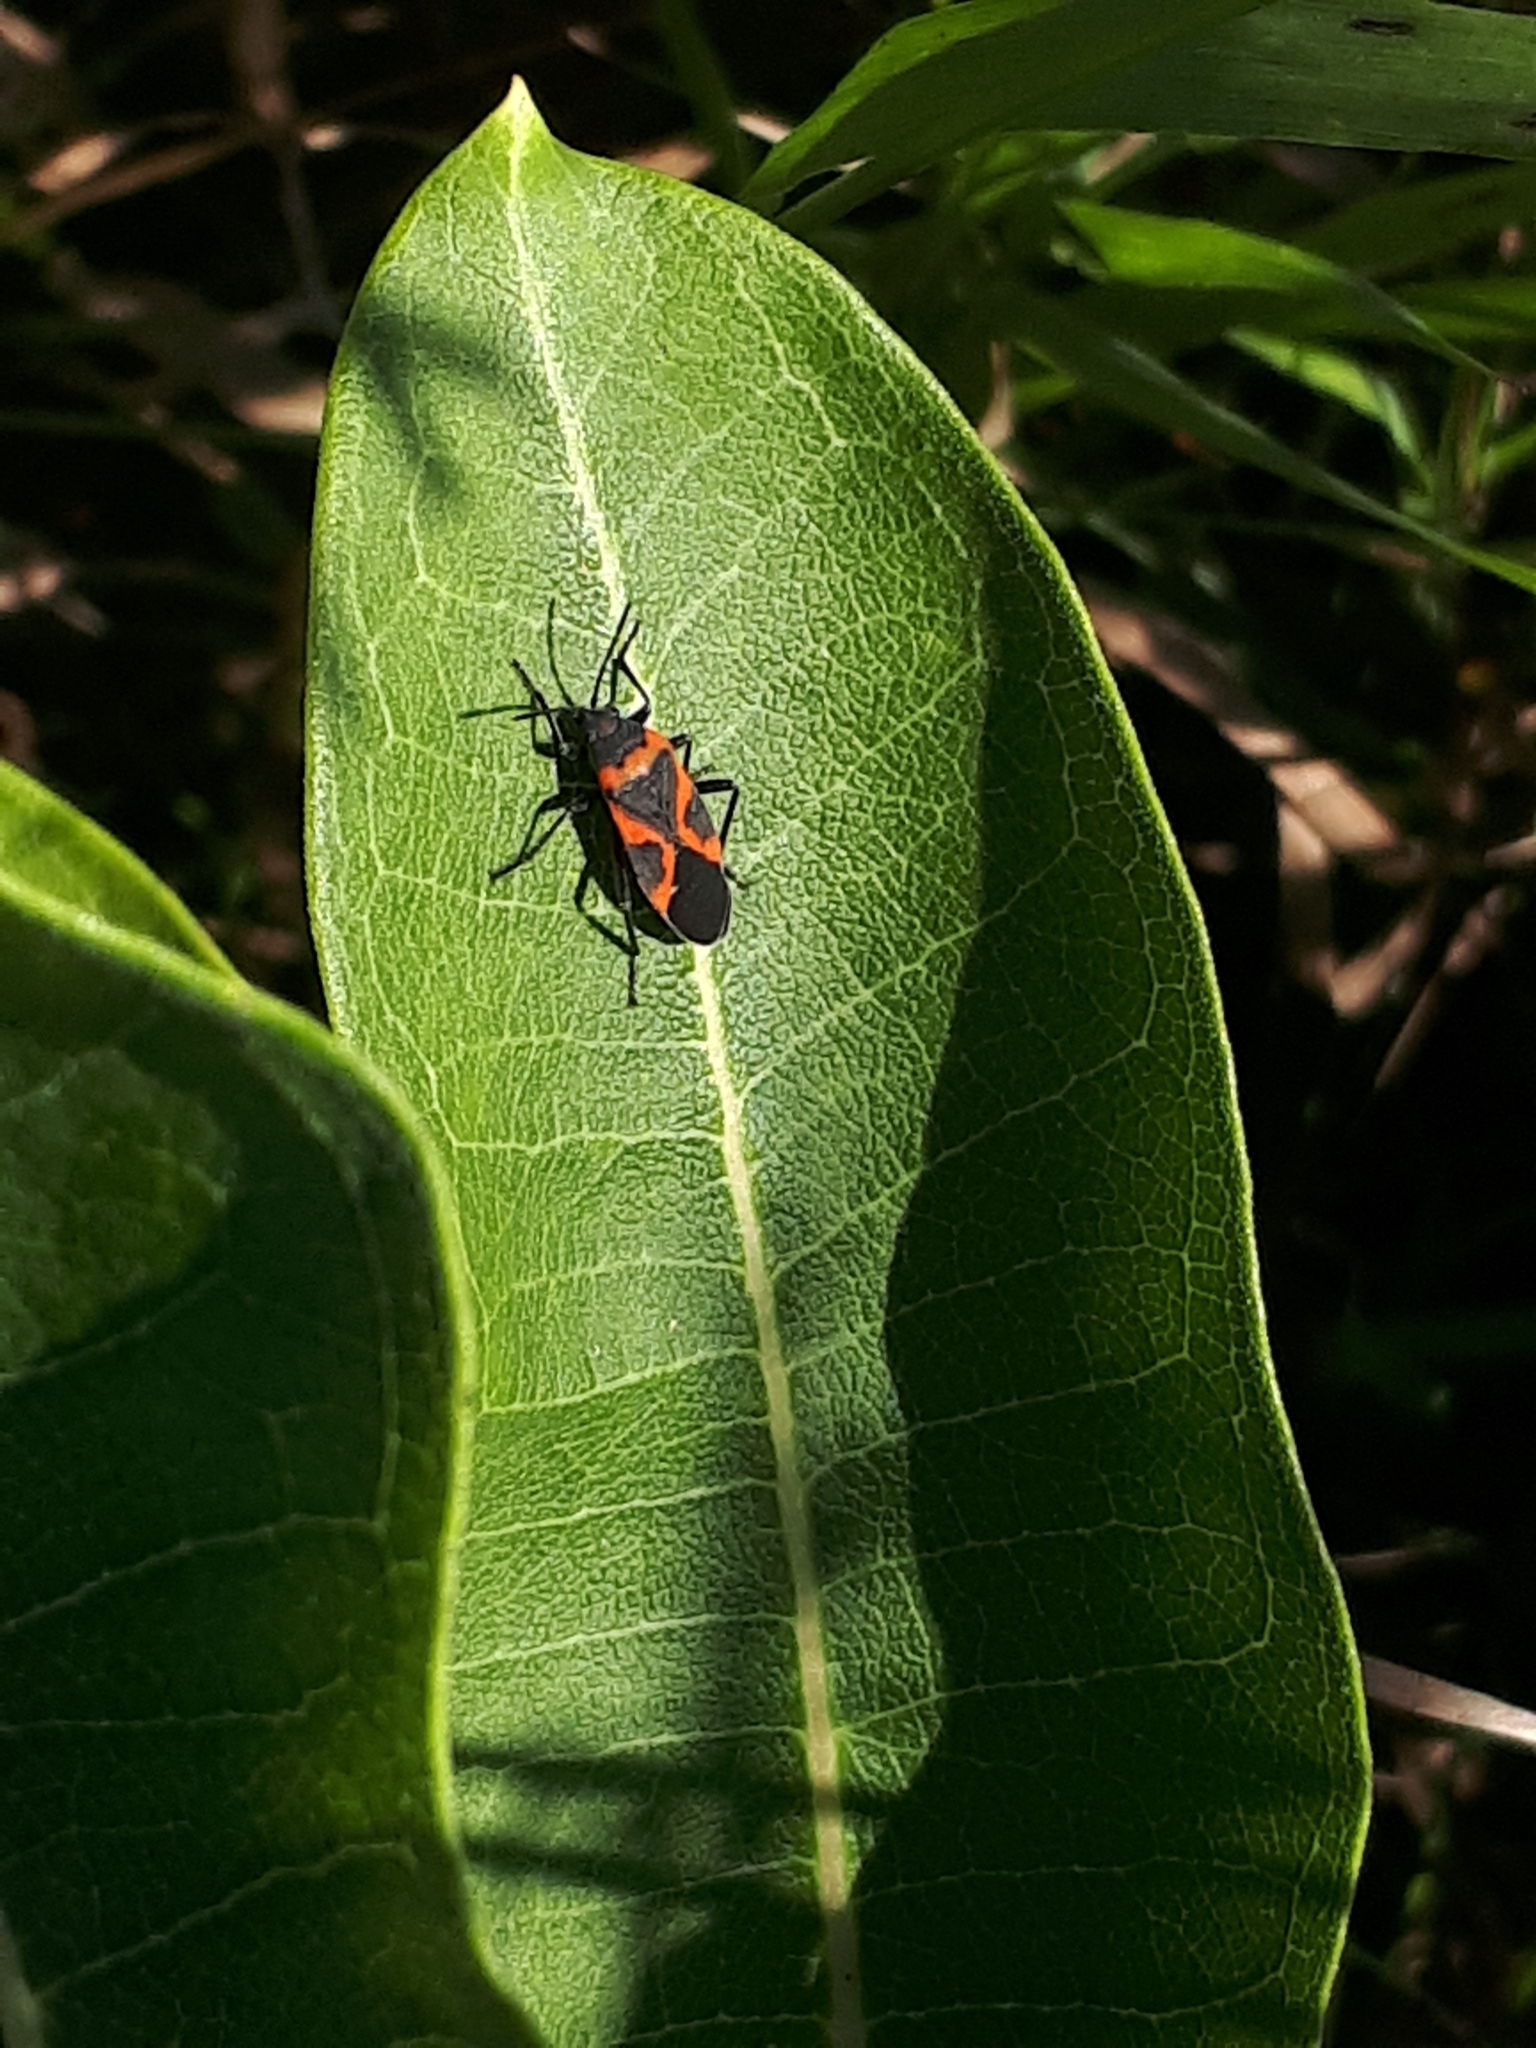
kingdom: Animalia
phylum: Arthropoda
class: Insecta
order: Hemiptera
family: Lygaeidae
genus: Lygaeus
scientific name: Lygaeus kalmii
